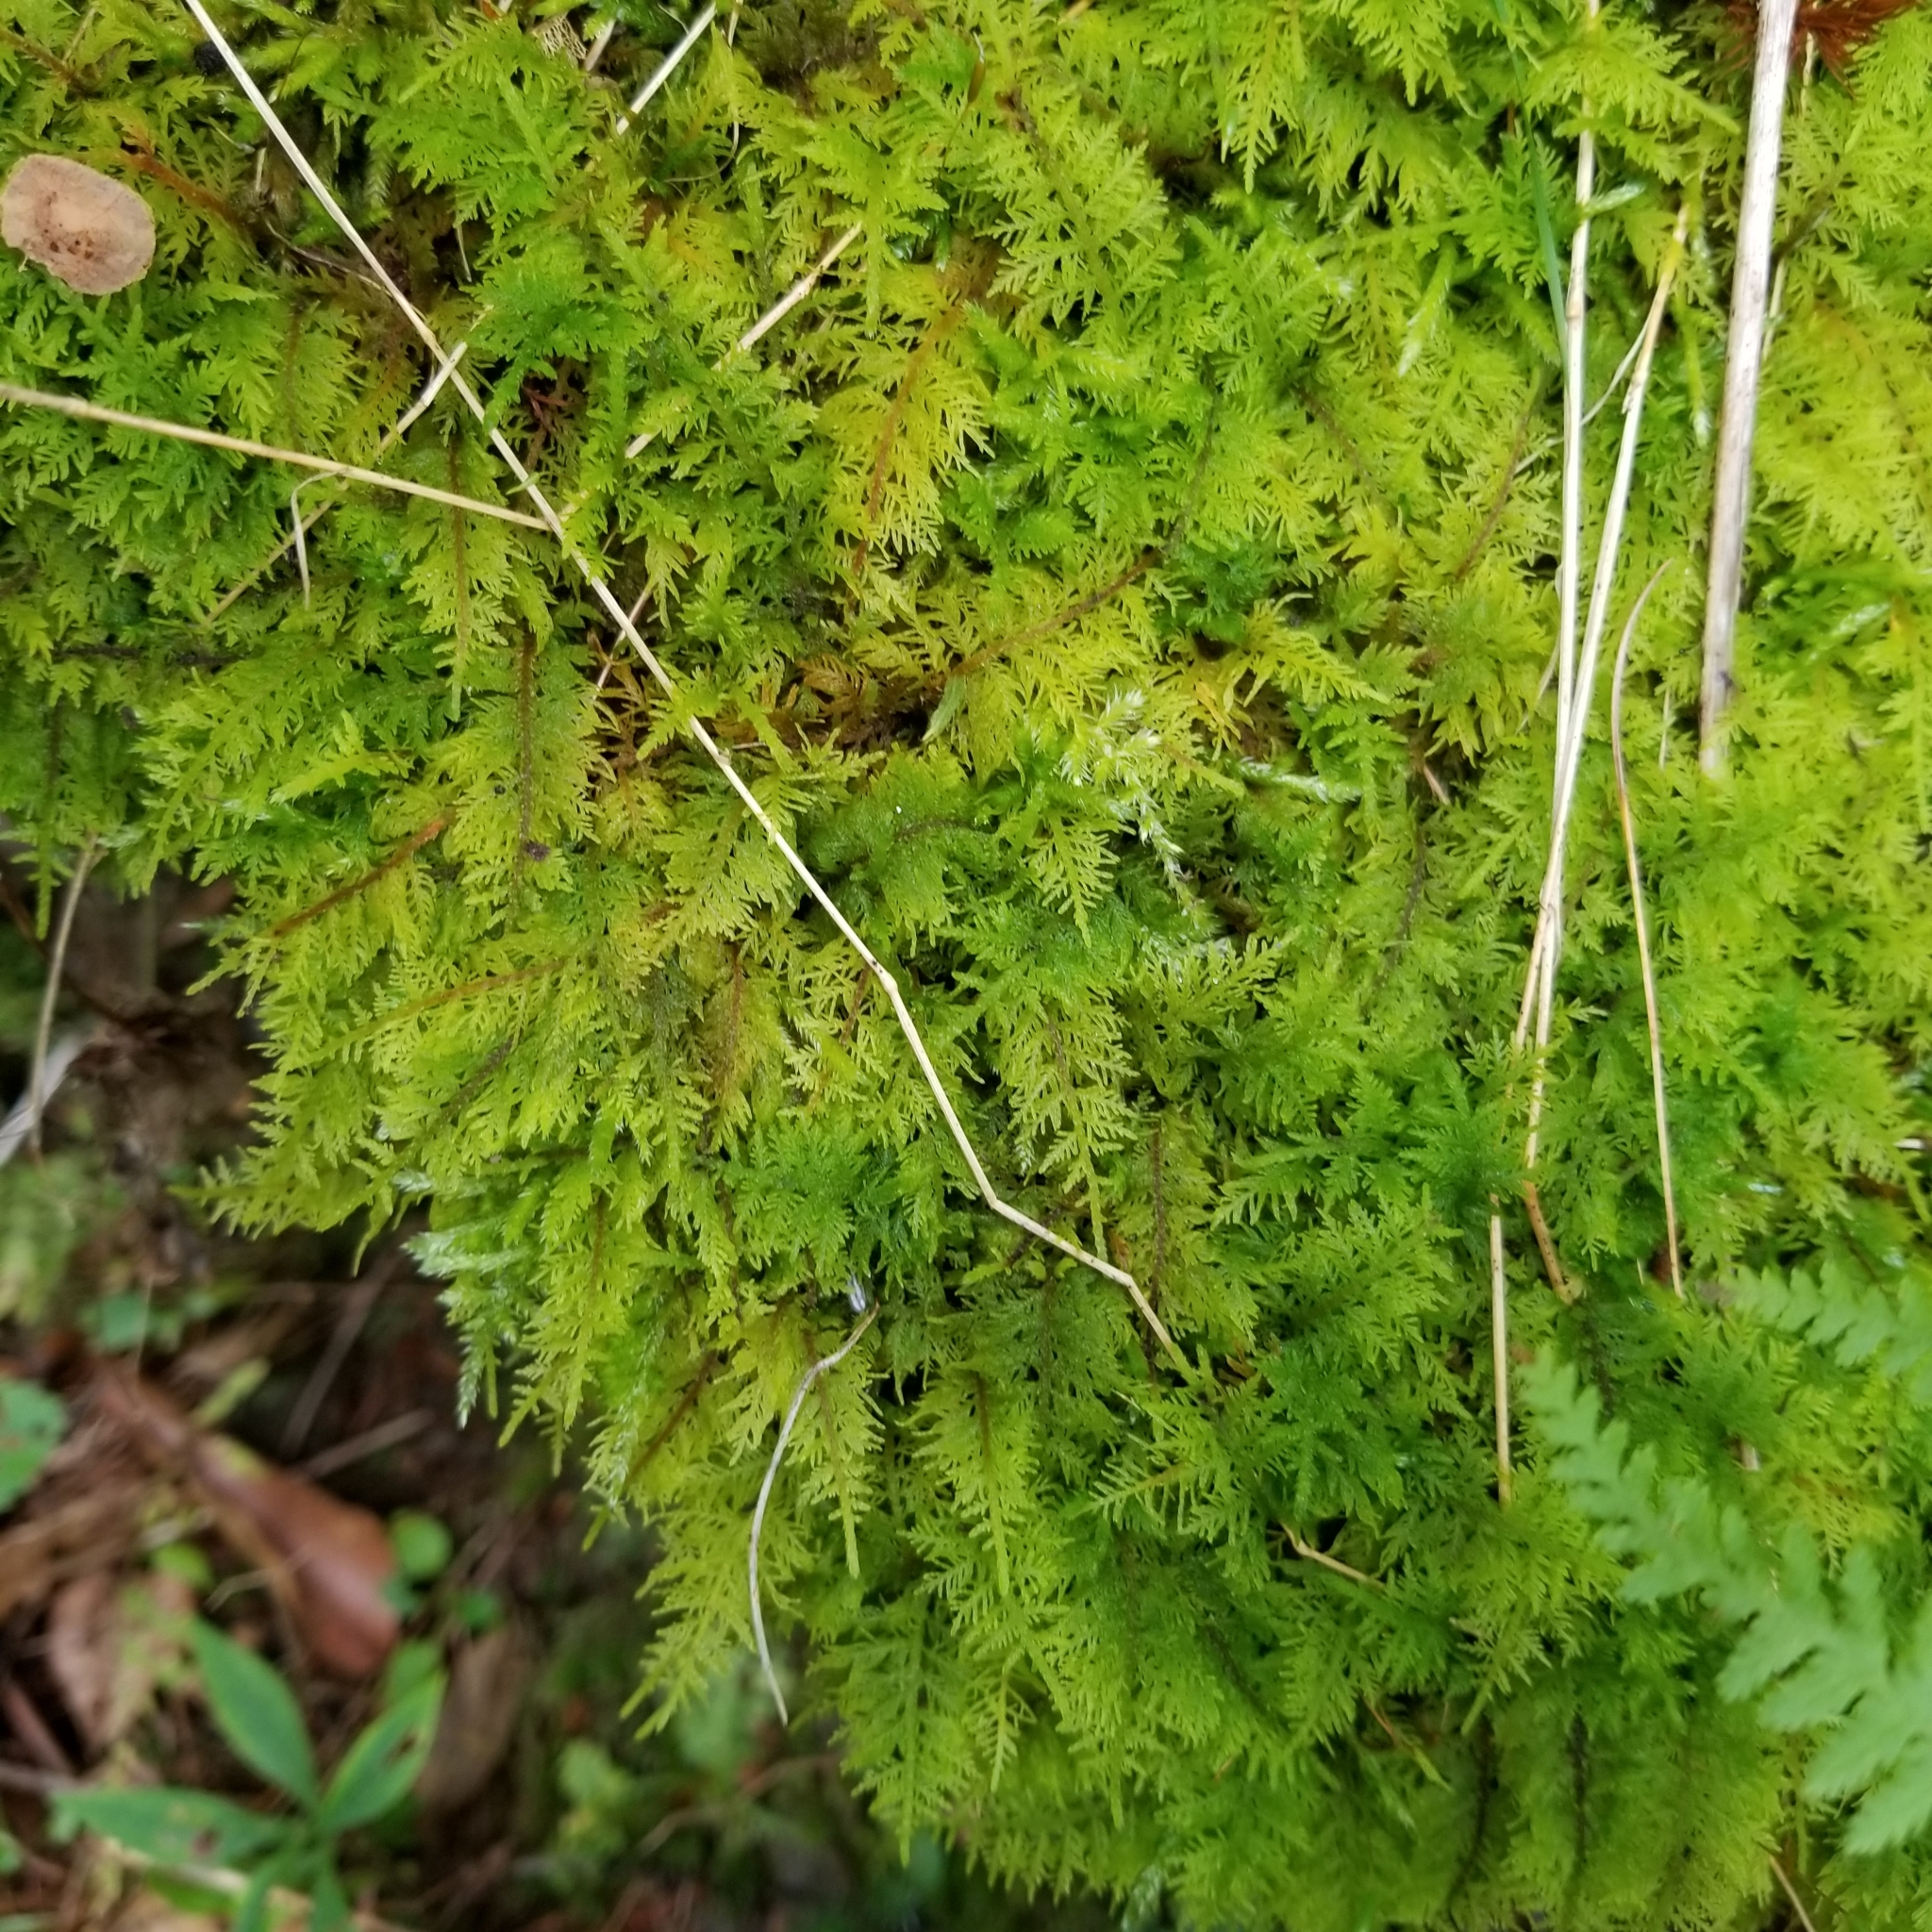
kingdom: Plantae
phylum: Bryophyta
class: Bryopsida
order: Hypnales
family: Thuidiaceae
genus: Thuidium
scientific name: Thuidium delicatulum
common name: Delicate fern moss
